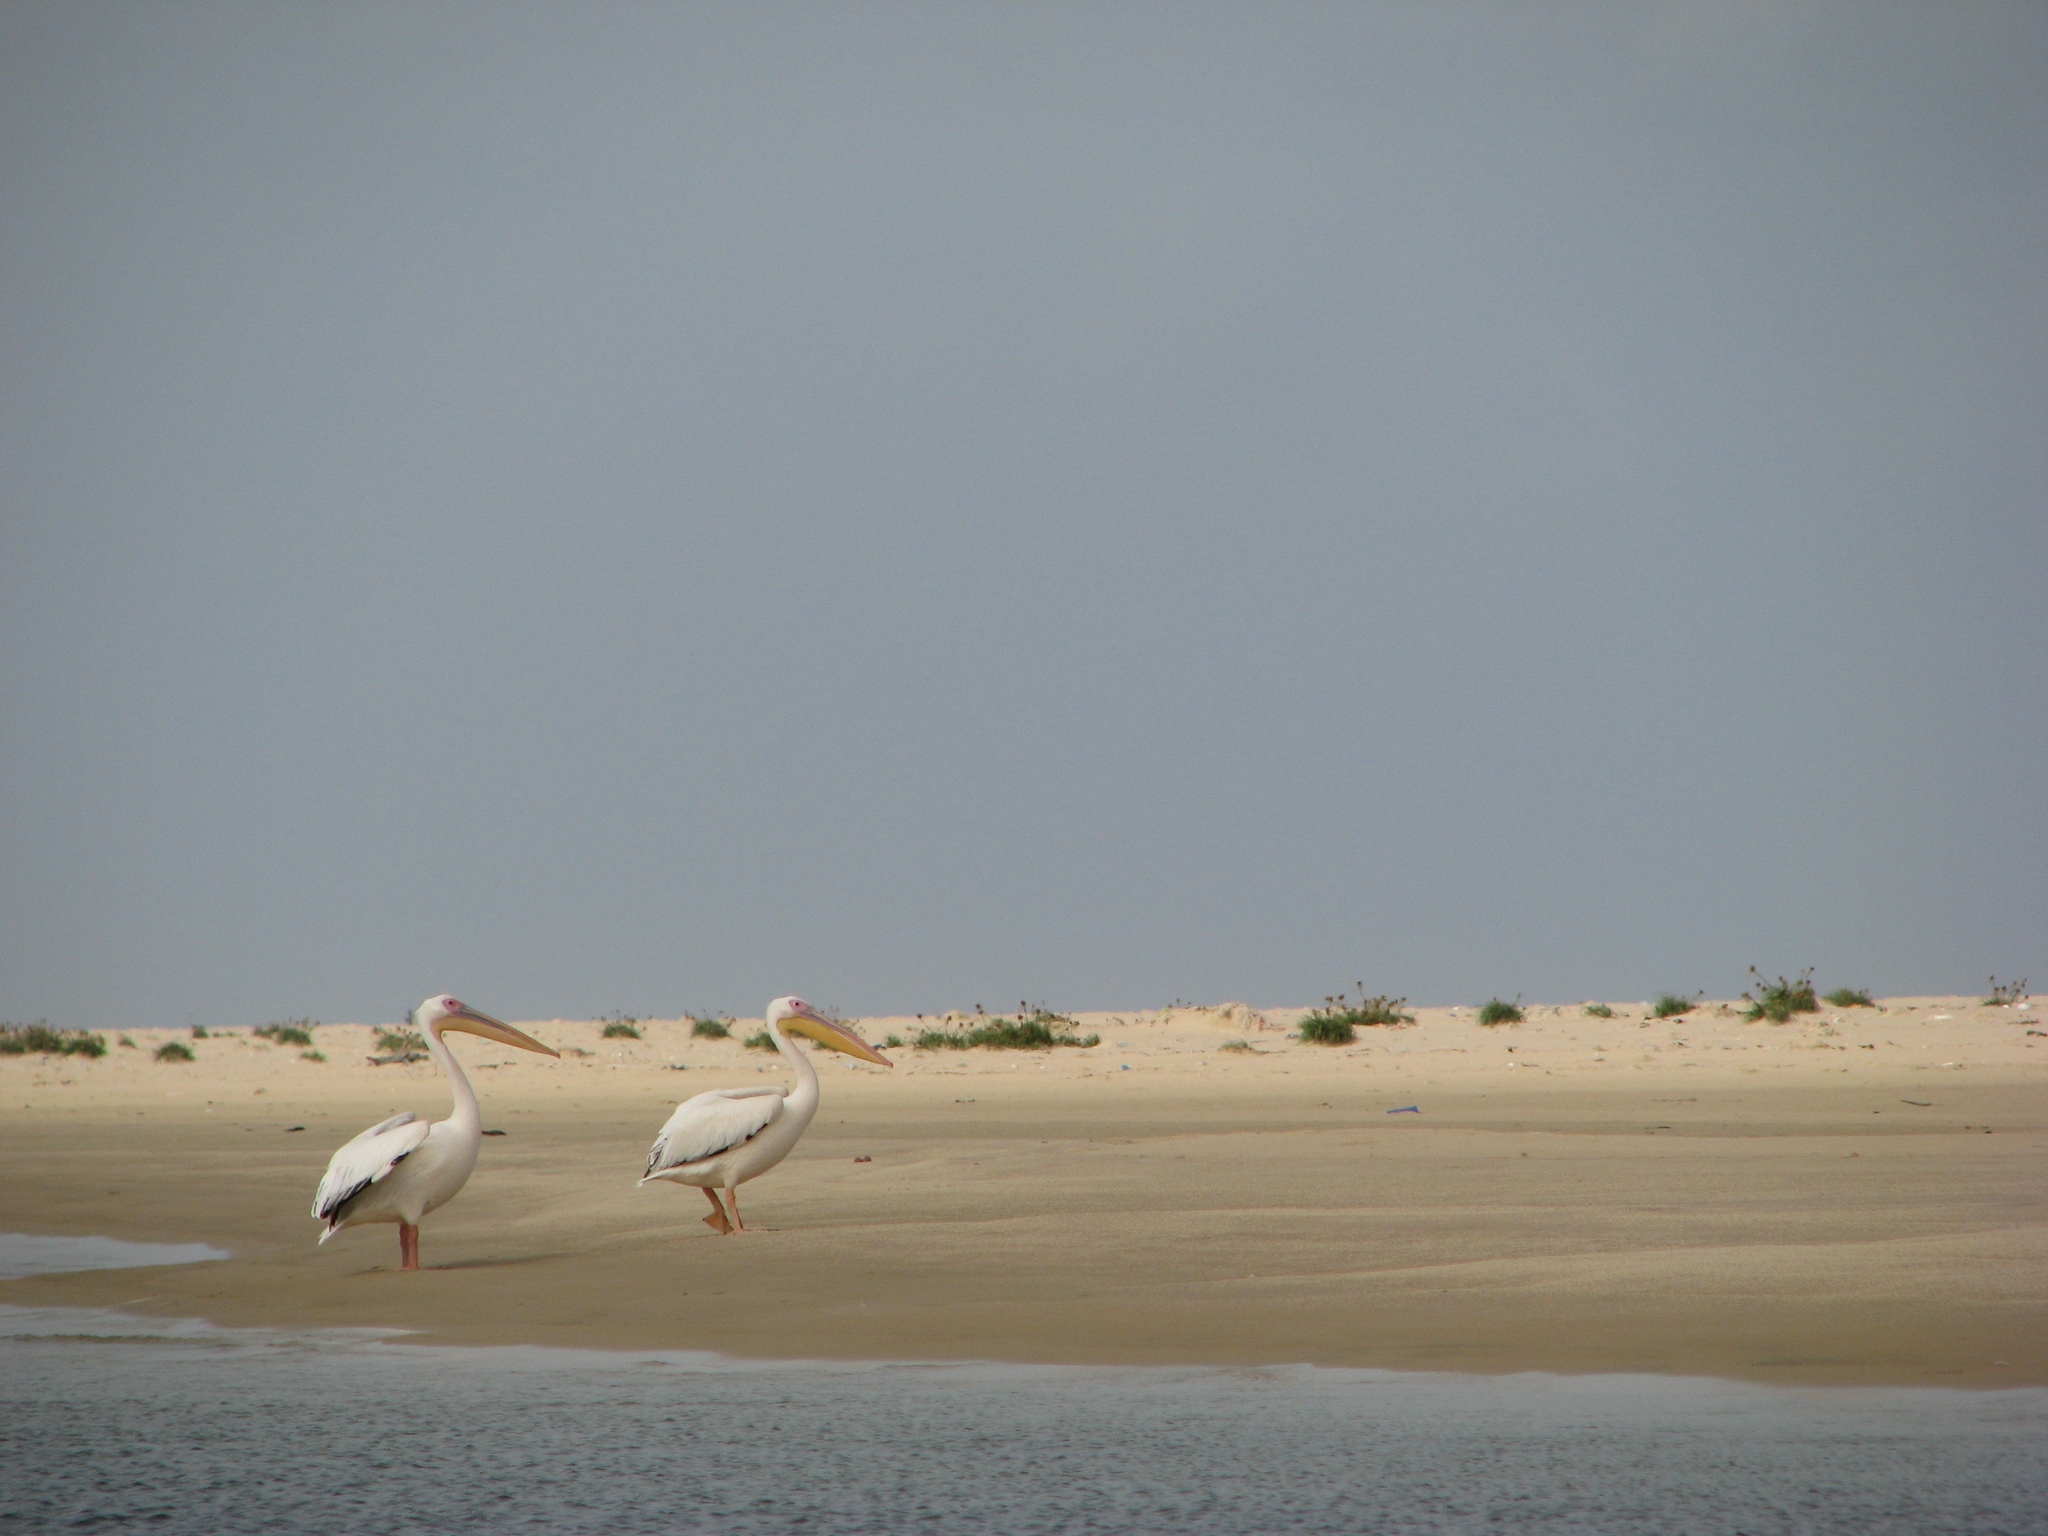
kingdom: Animalia
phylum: Chordata
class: Aves
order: Pelecaniformes
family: Pelecanidae
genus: Pelecanus
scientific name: Pelecanus onocrotalus
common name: Great white pelican
